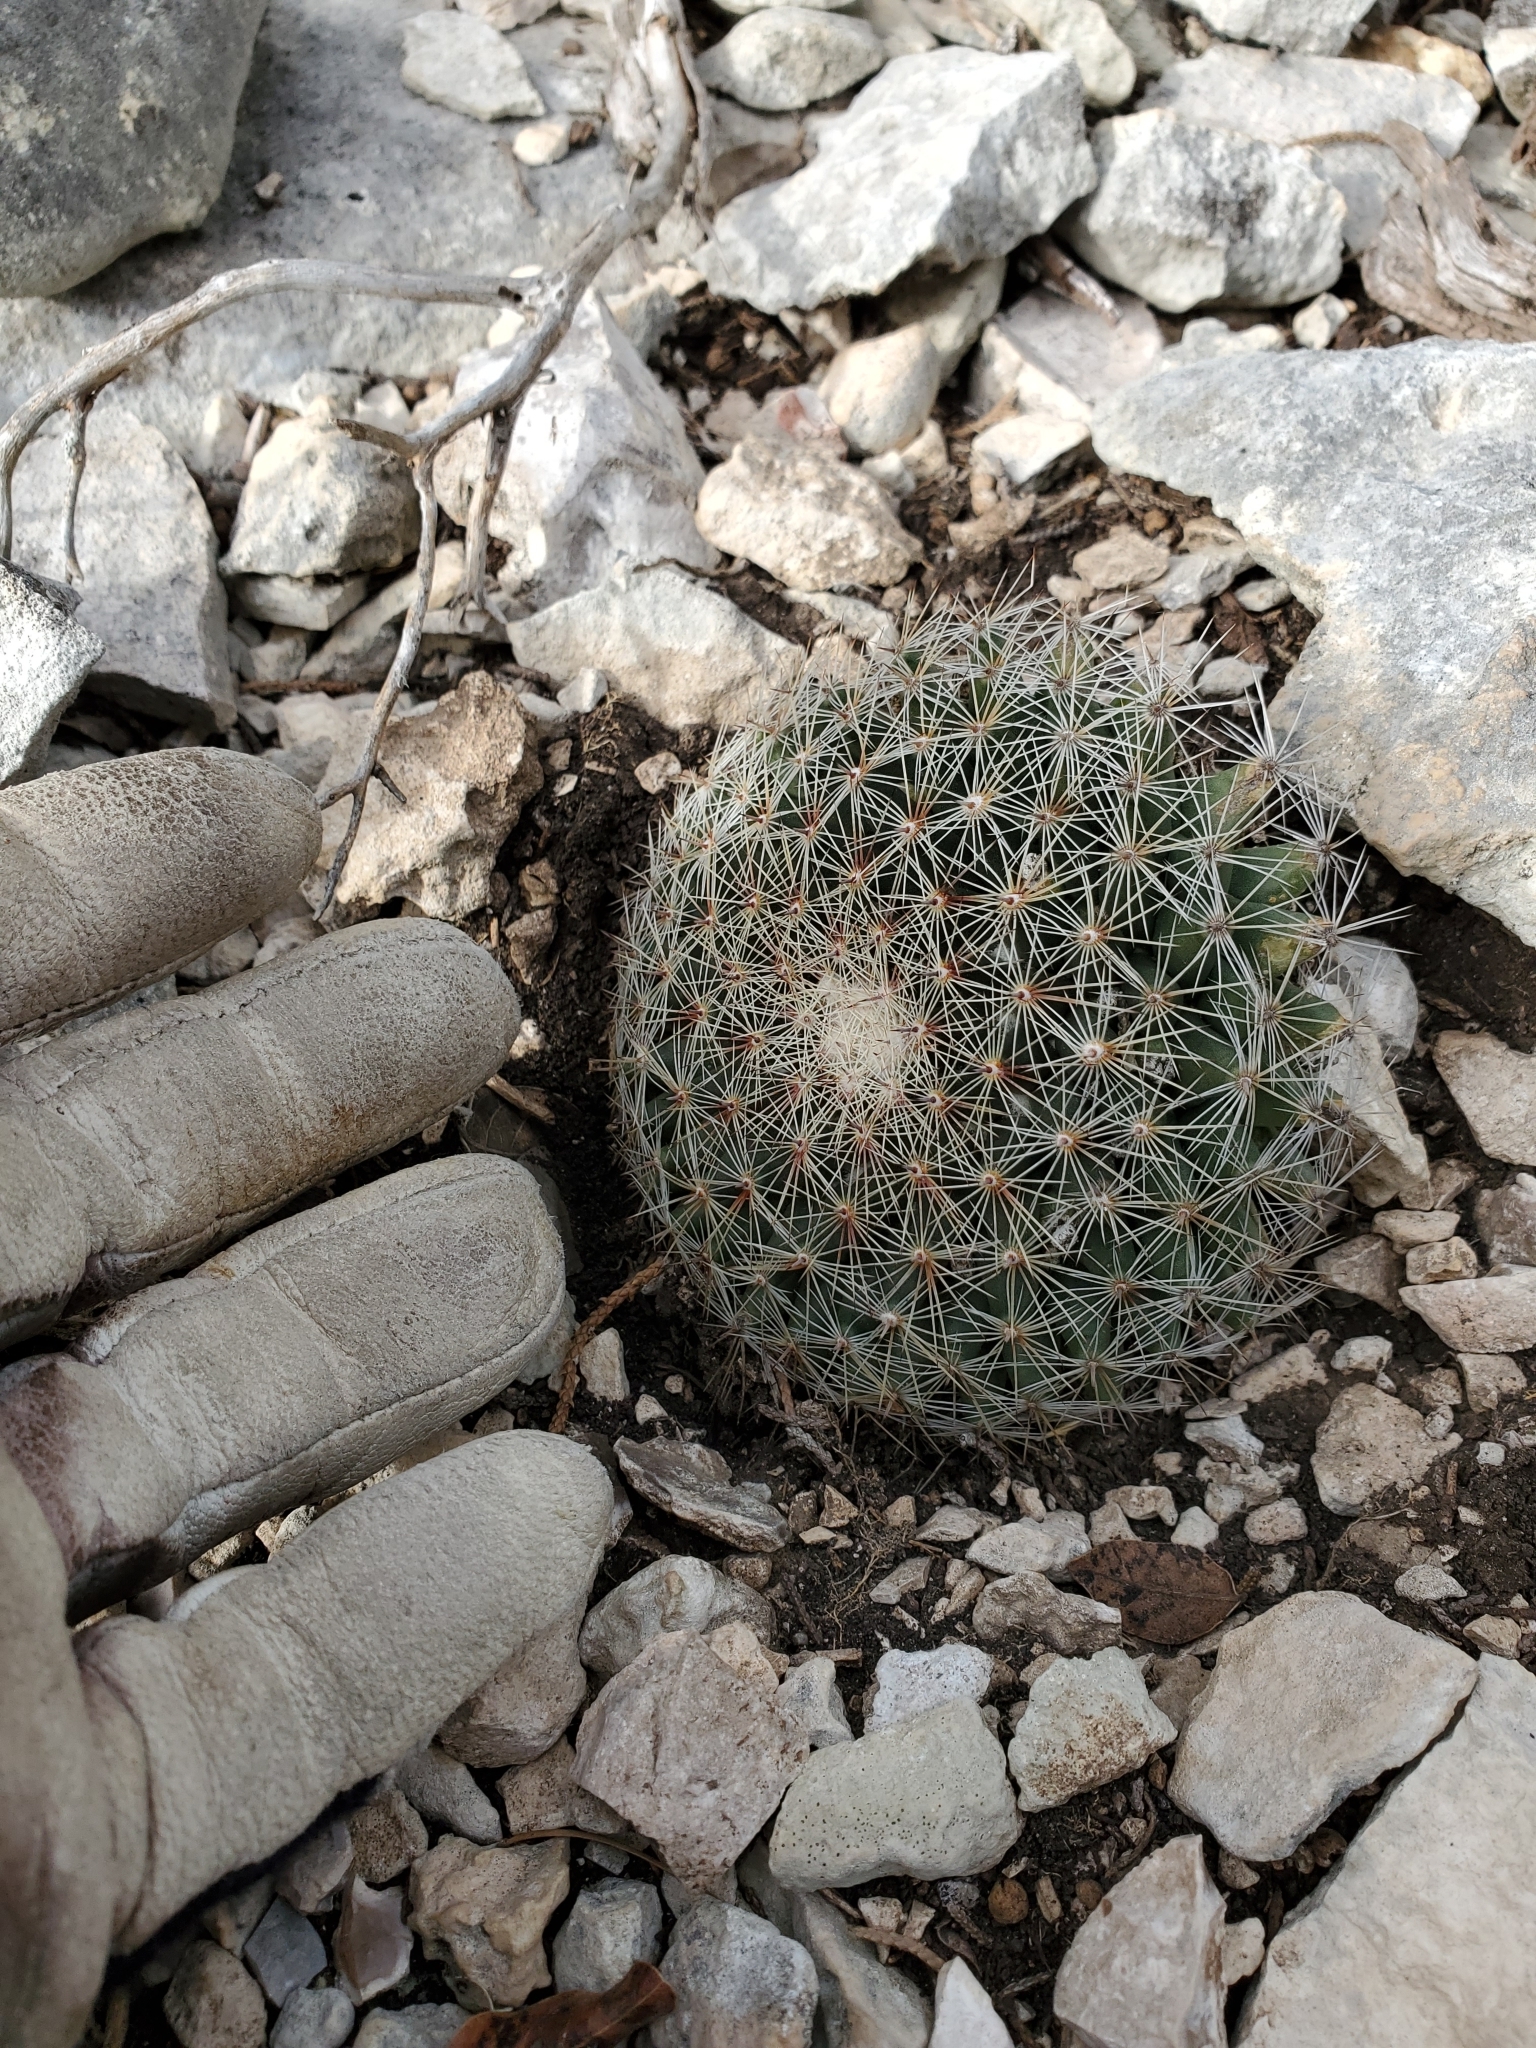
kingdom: Plantae
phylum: Tracheophyta
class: Magnoliopsida
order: Caryophyllales
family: Cactaceae
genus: Mammillaria
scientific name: Mammillaria heyderi
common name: Little nipple cactus
